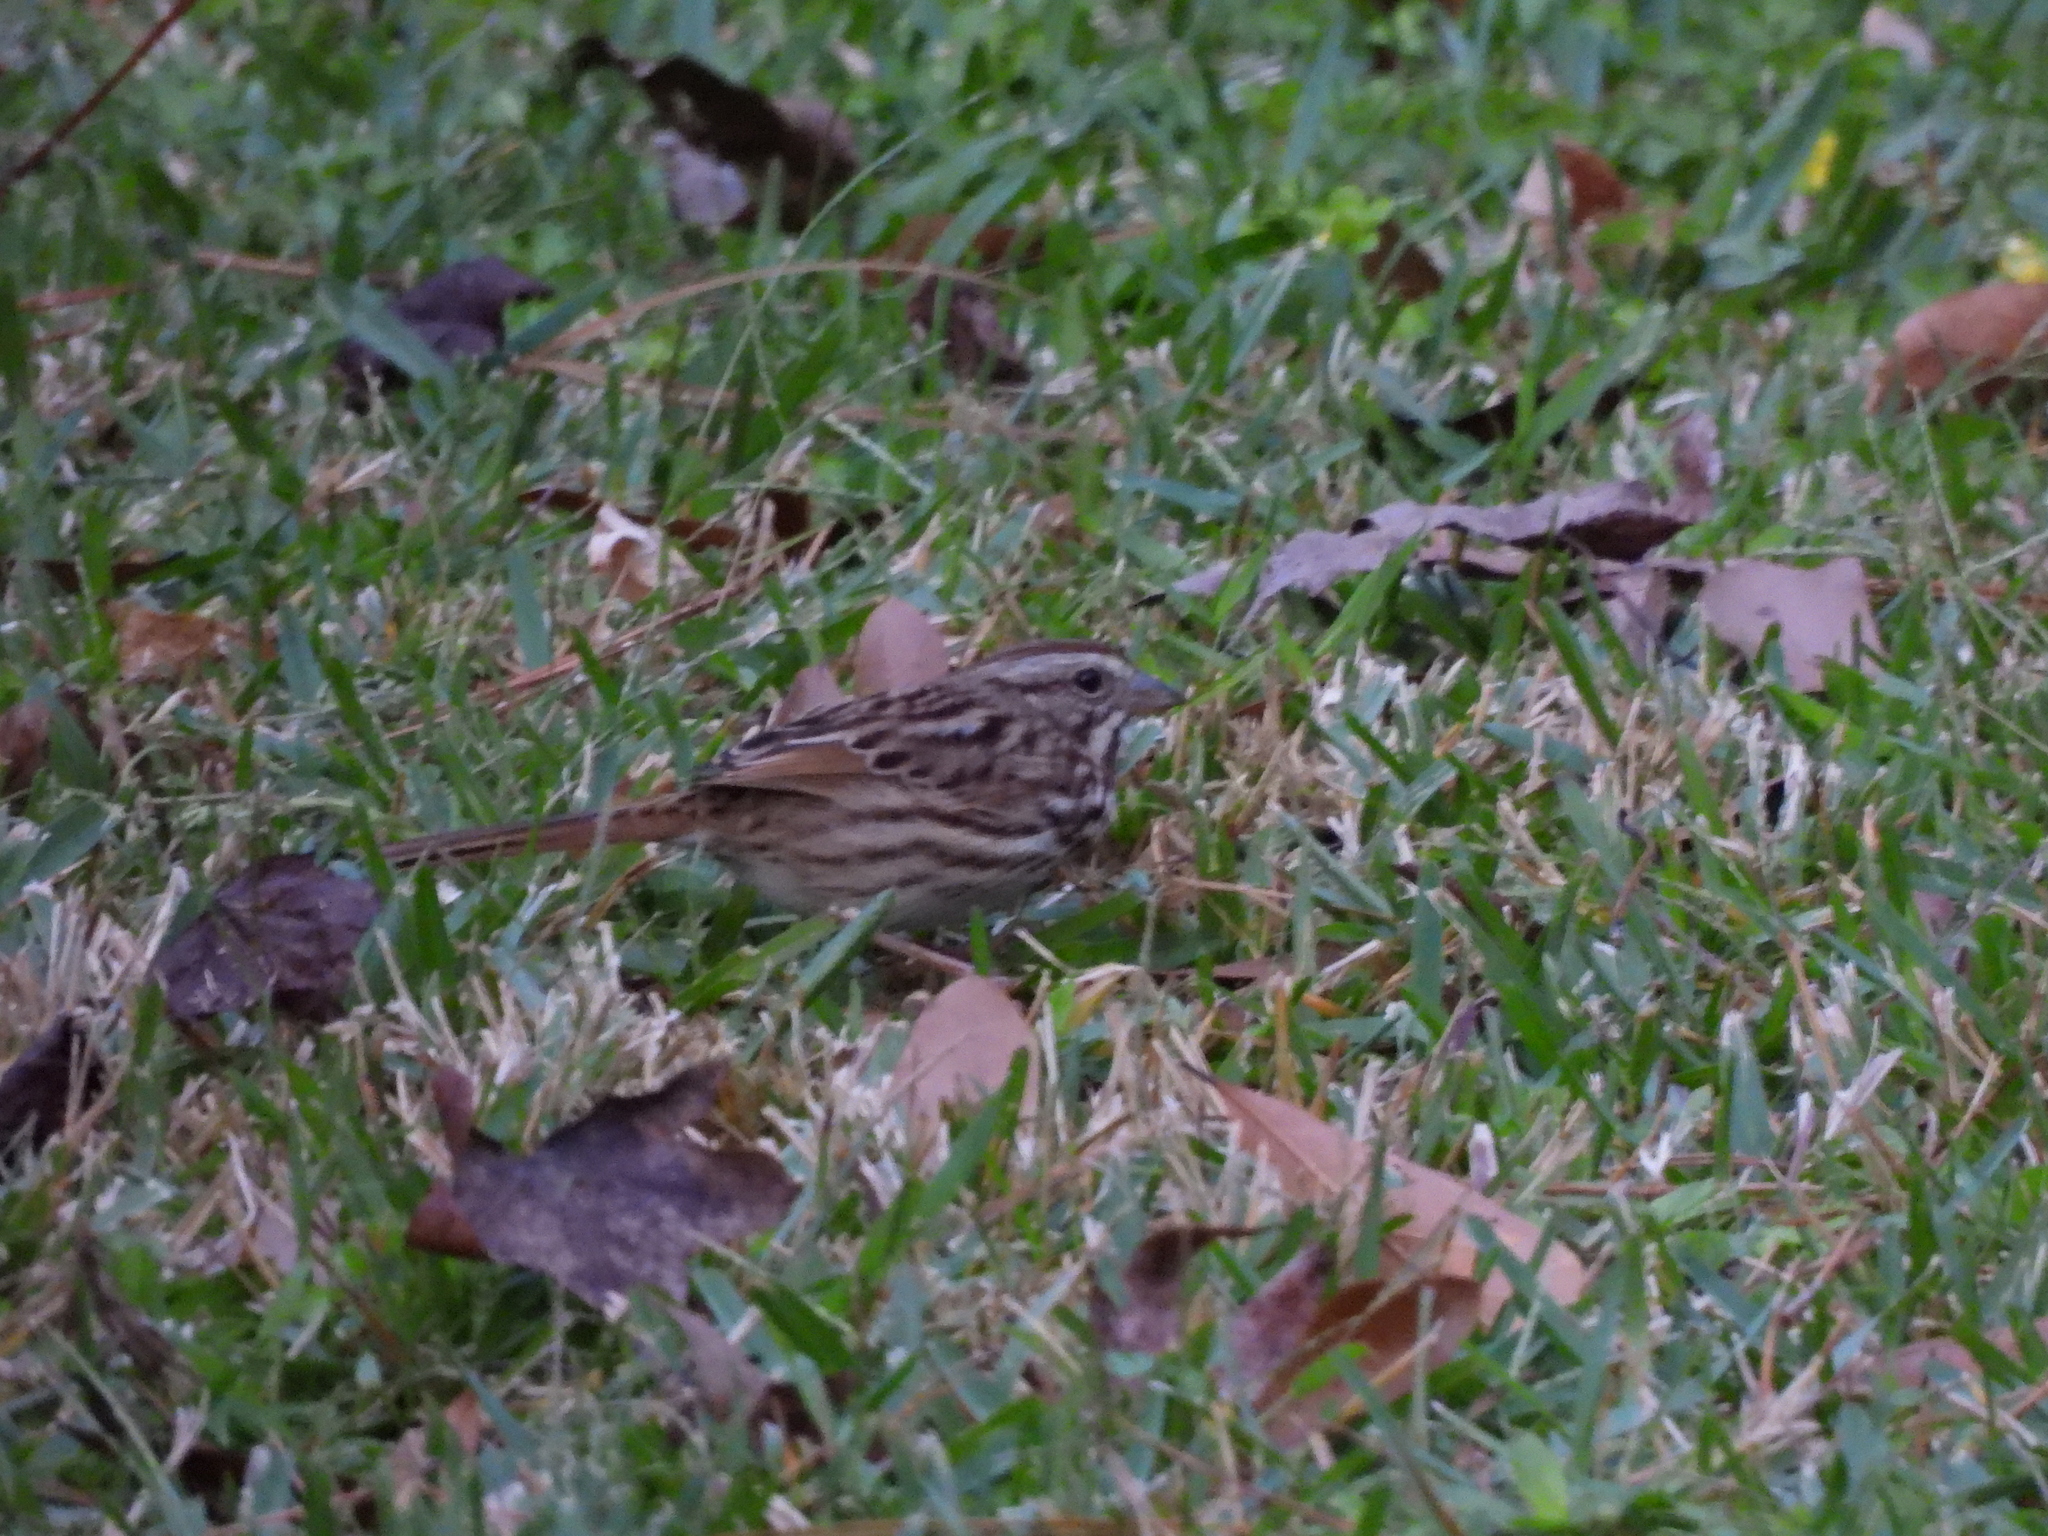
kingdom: Animalia
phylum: Chordata
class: Aves
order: Passeriformes
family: Passerellidae
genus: Melospiza
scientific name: Melospiza melodia
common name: Song sparrow
